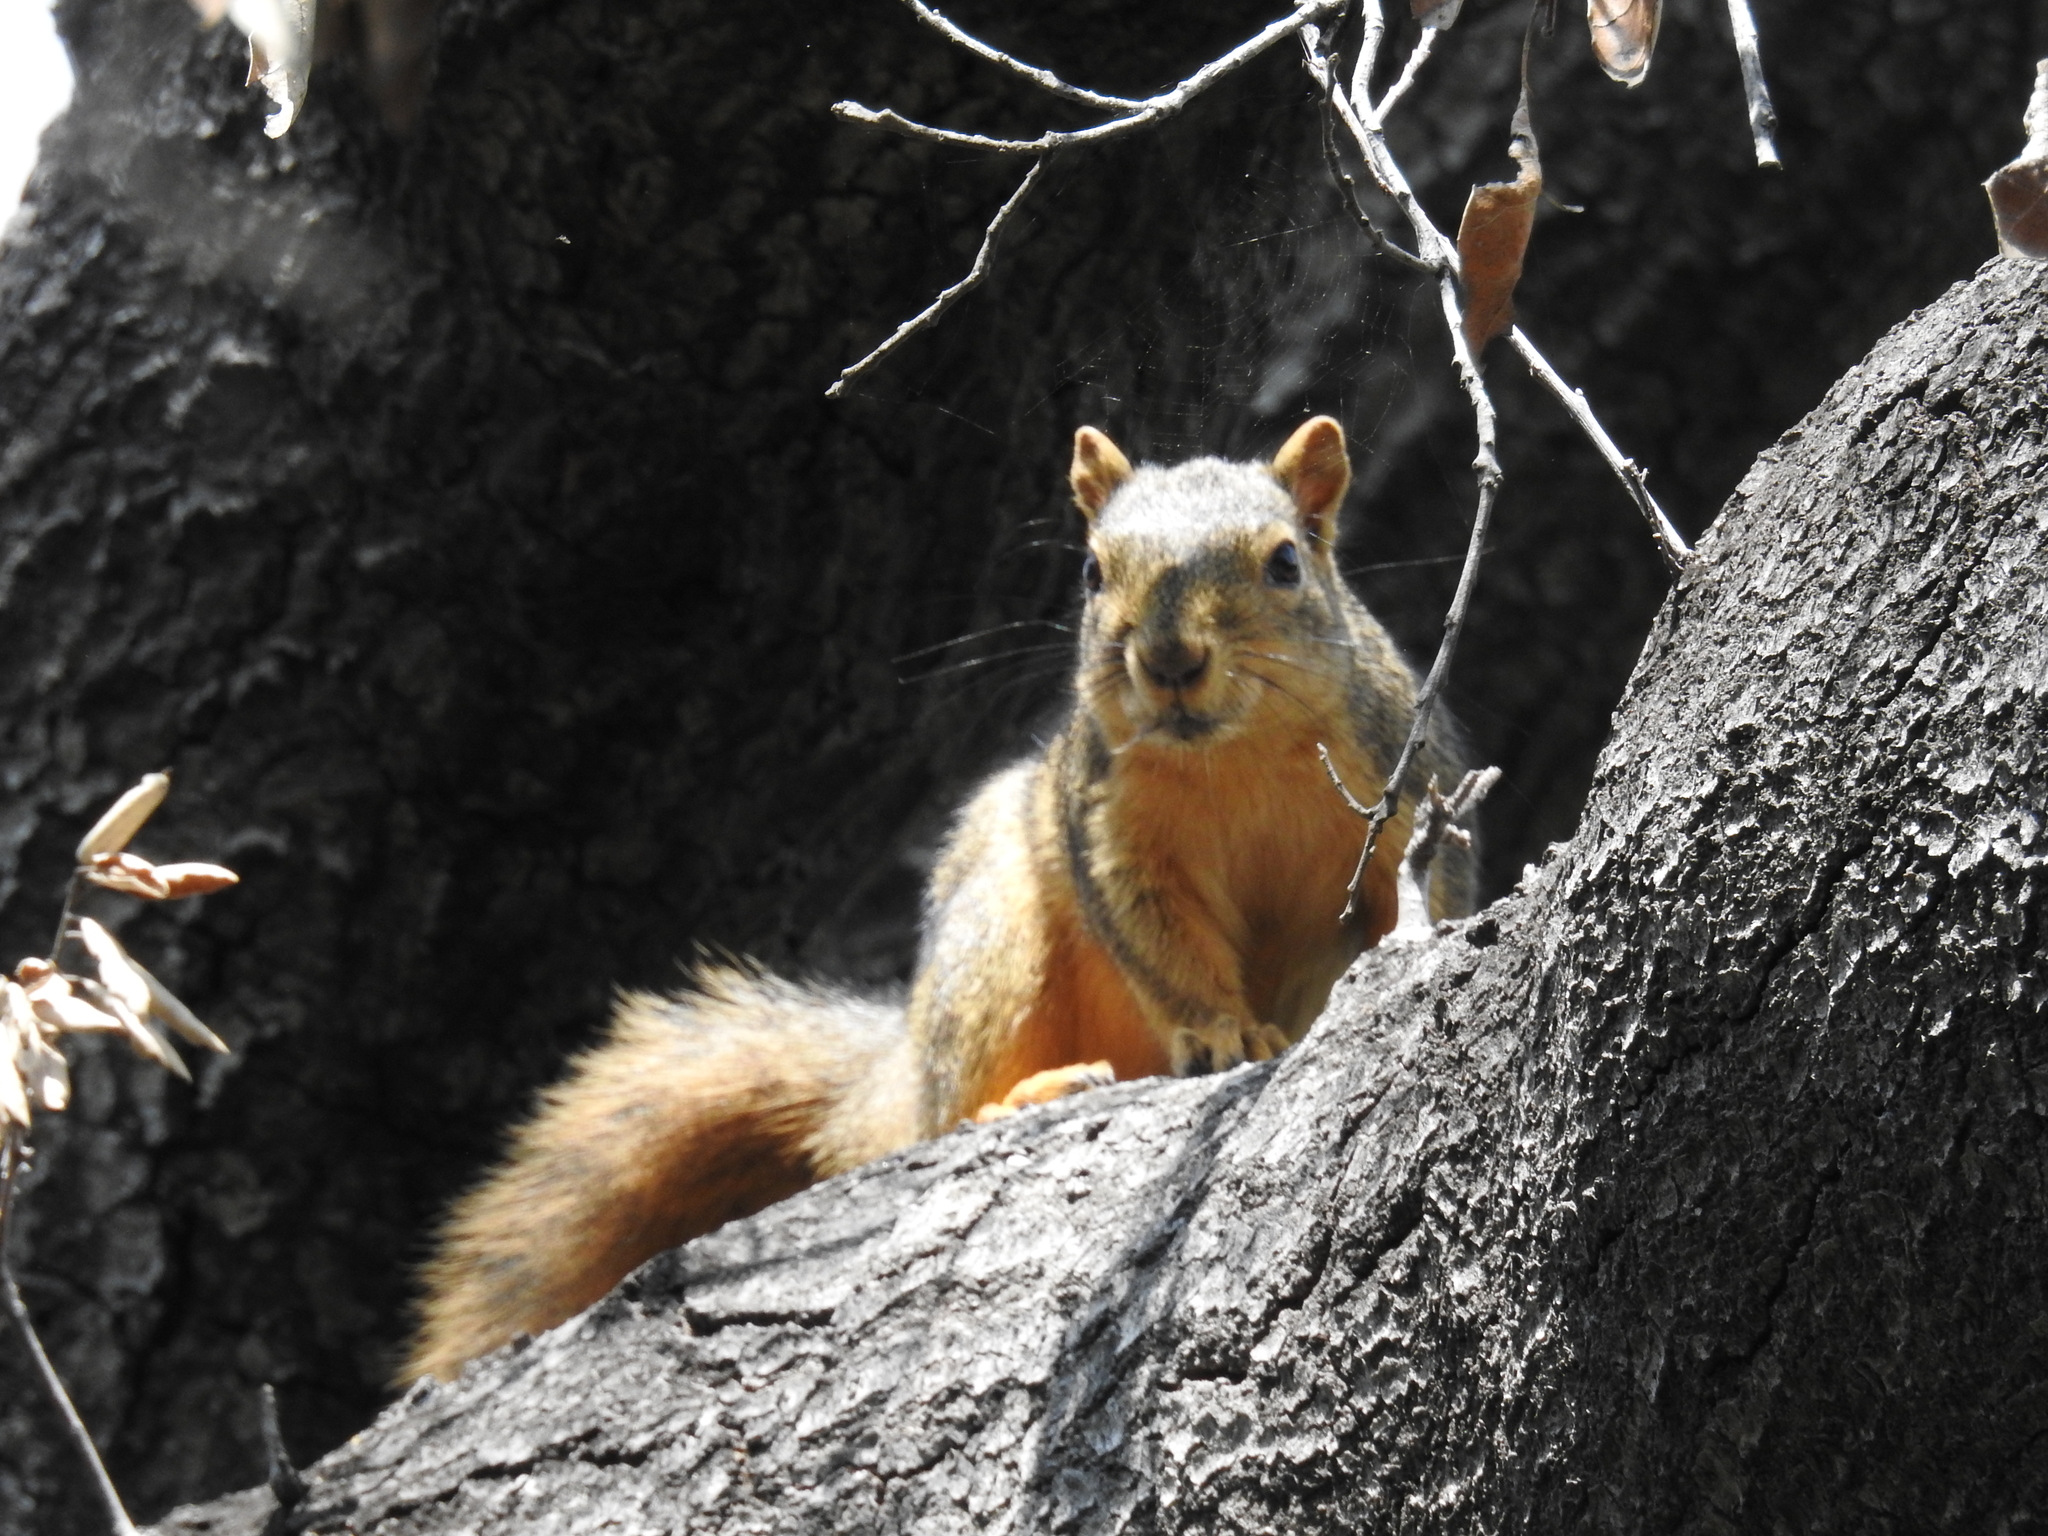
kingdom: Animalia
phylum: Chordata
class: Mammalia
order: Rodentia
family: Sciuridae
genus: Sciurus
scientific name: Sciurus niger
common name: Fox squirrel
